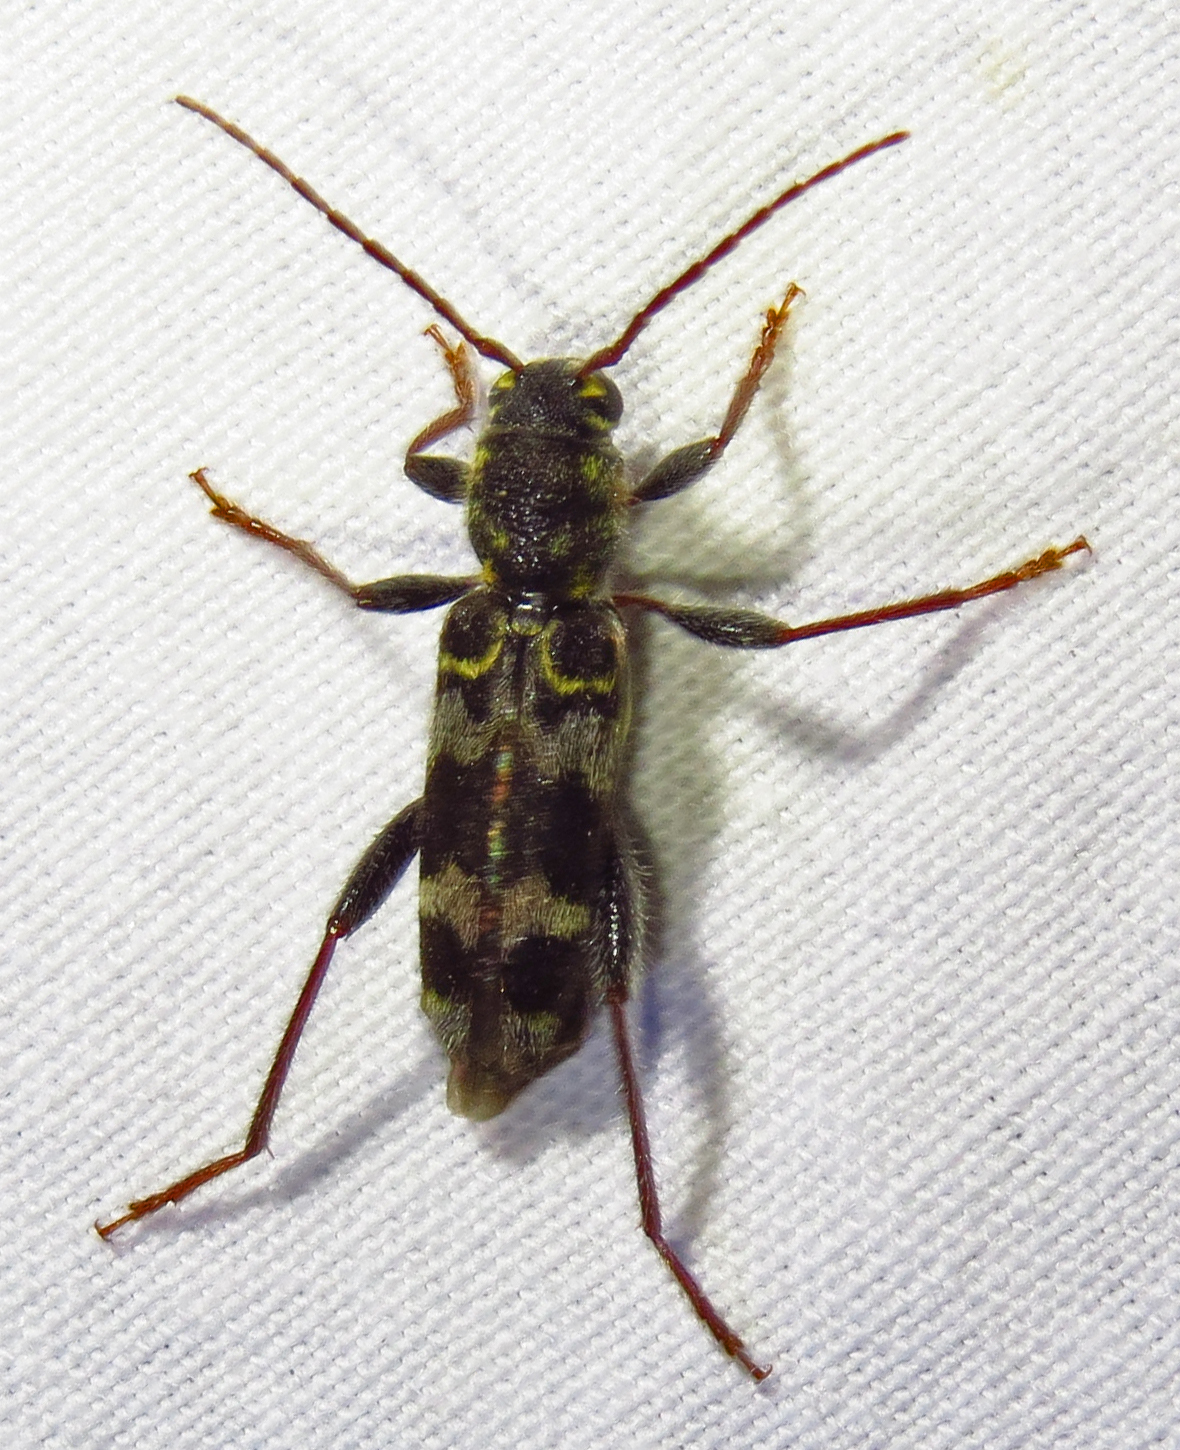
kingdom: Animalia
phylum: Arthropoda
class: Insecta
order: Coleoptera
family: Cerambycidae
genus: Xylotrechus
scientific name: Xylotrechus colonus
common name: Long-horned beetle
